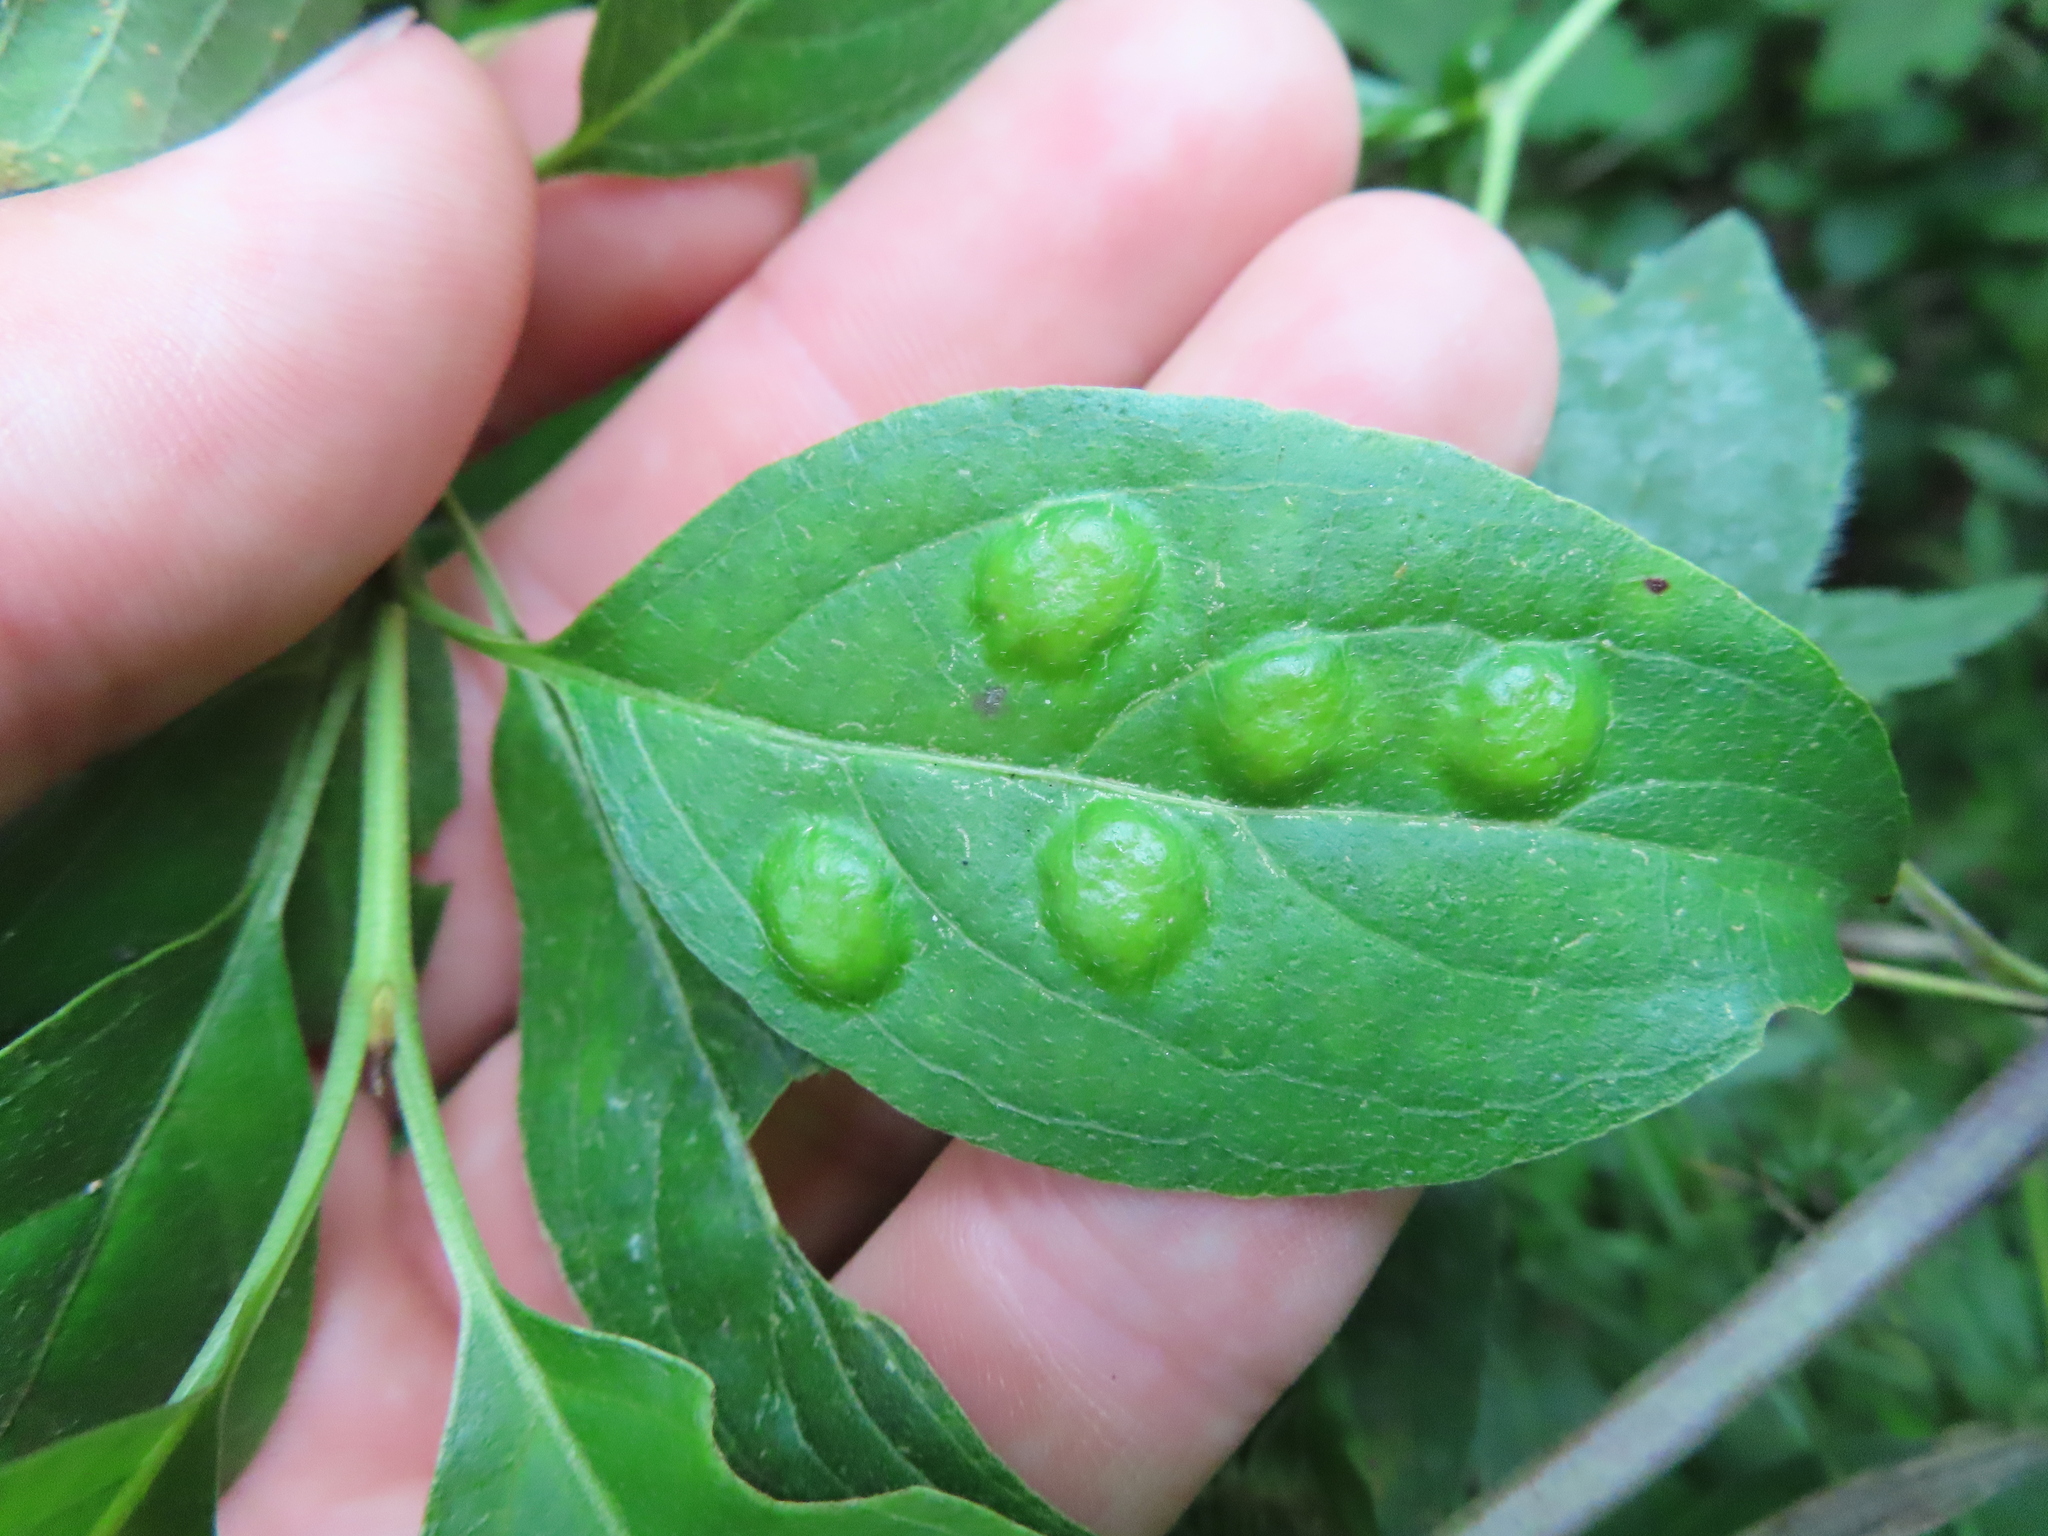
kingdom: Animalia
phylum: Arthropoda
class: Insecta
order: Diptera
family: Cecidomyiidae
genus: Parallelodiplosis
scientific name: Parallelodiplosis subtruncata
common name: Dogwood eyespot gall midge
